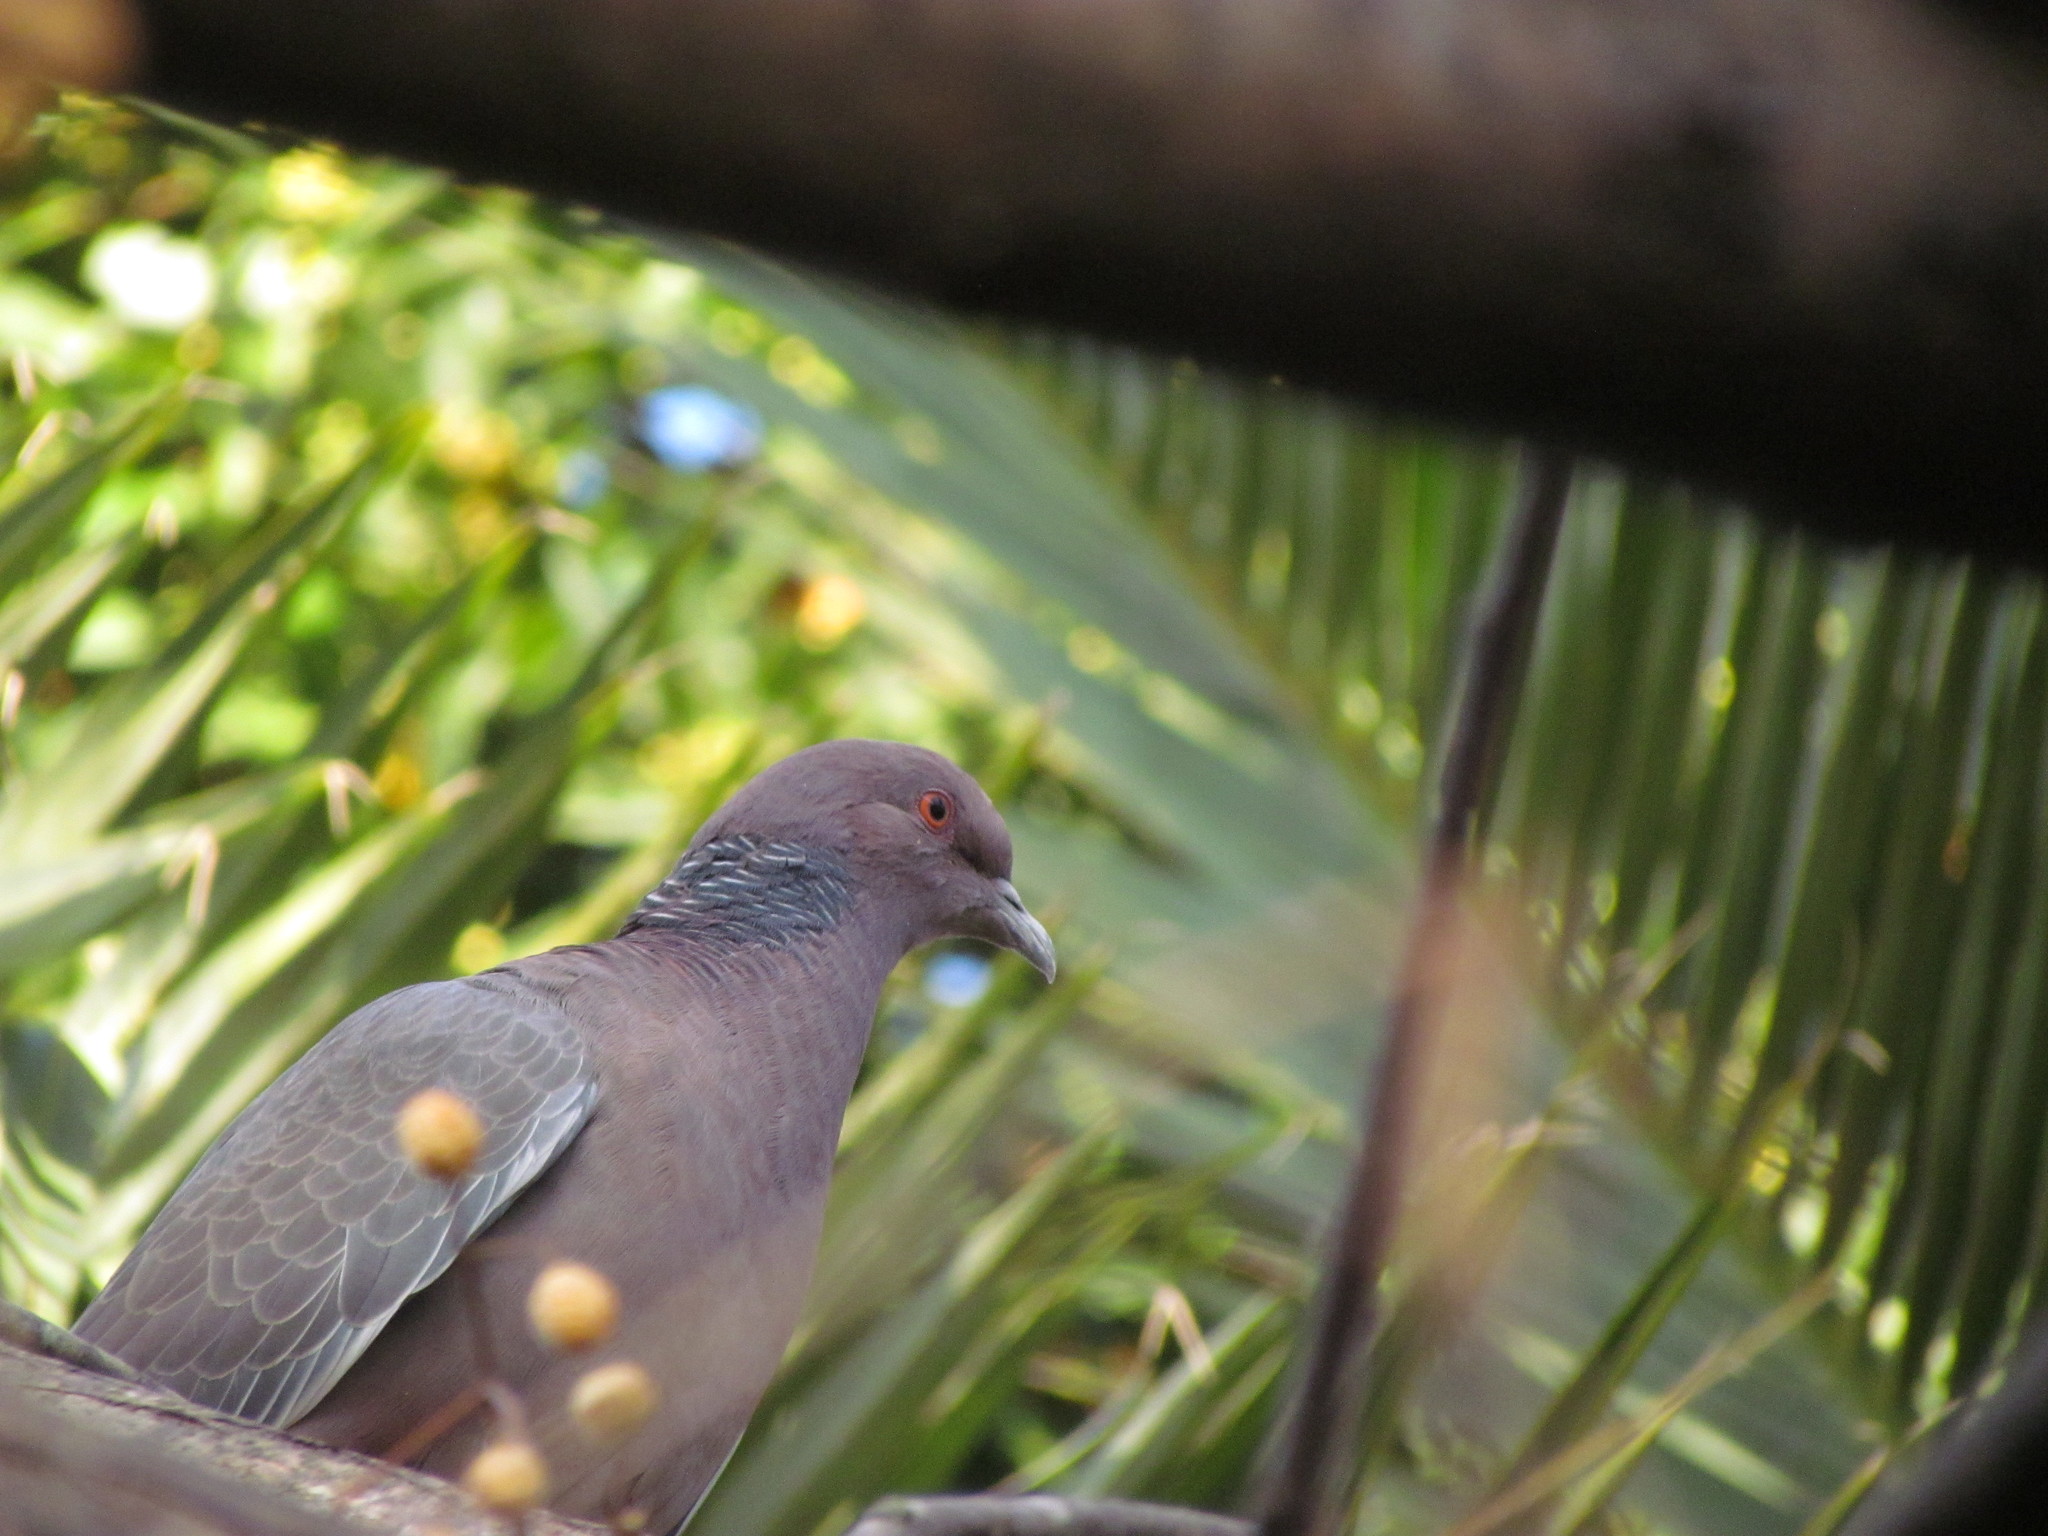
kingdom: Animalia
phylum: Chordata
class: Aves
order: Columbiformes
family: Columbidae
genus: Patagioenas
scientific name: Patagioenas picazuro
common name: Picazuro pigeon
